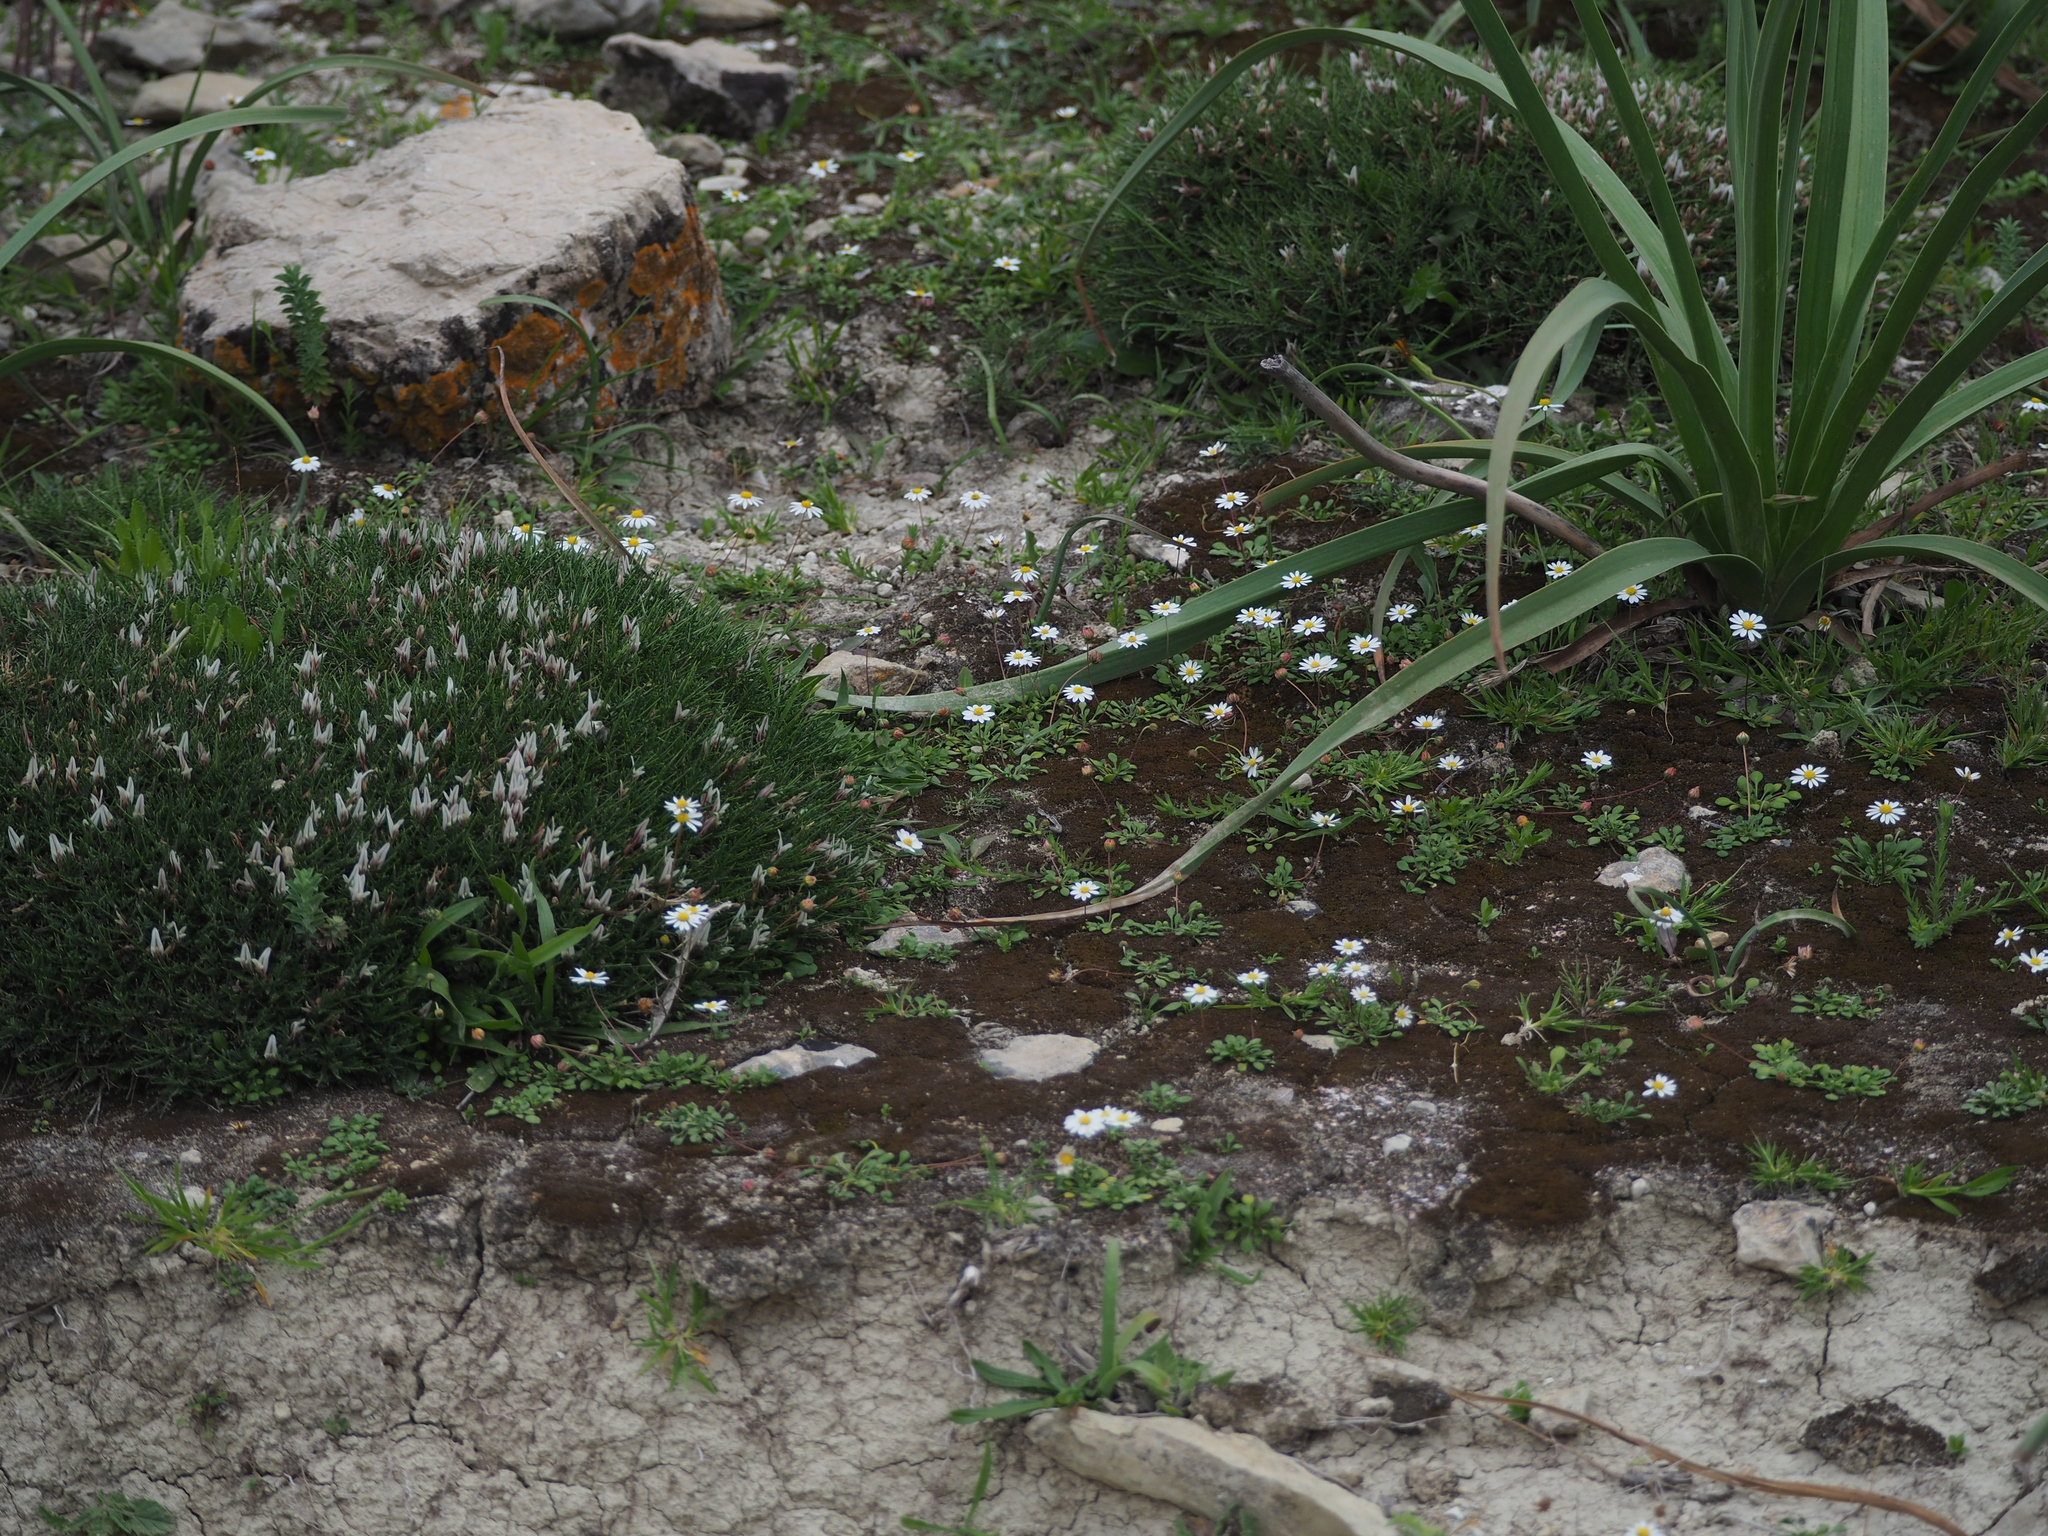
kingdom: Plantae
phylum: Tracheophyta
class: Magnoliopsida
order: Asterales
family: Asteraceae
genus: Bellium
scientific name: Bellium bellidioides
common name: False daisy
